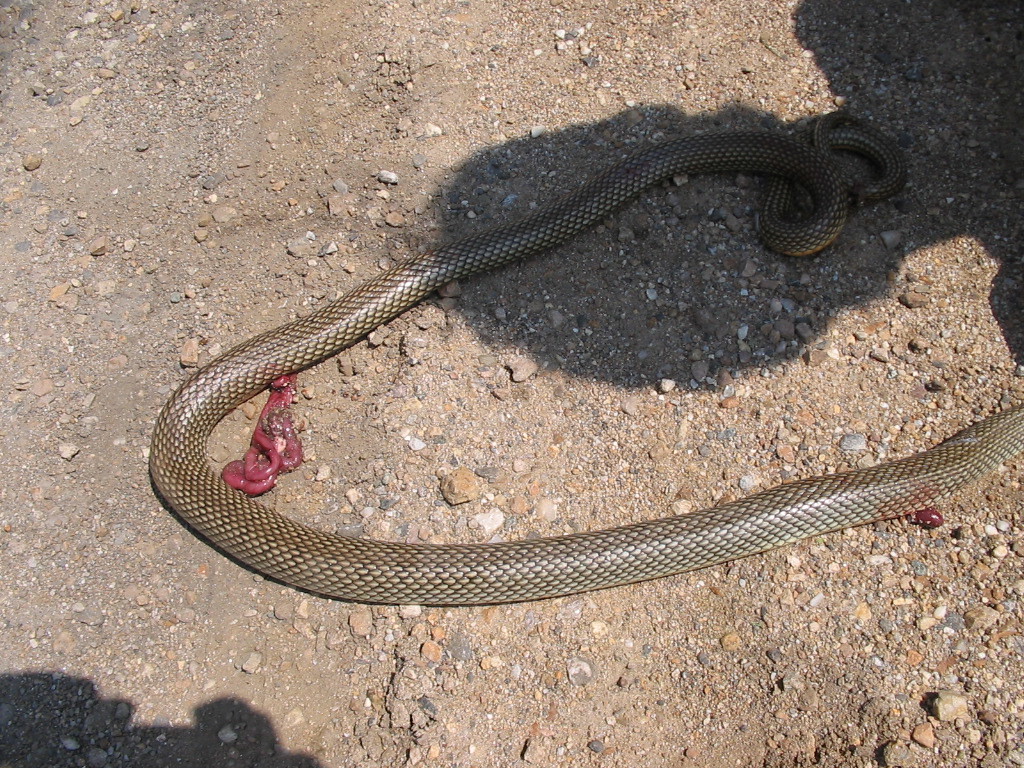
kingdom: Animalia
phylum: Chordata
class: Squamata
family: Colubridae
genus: Dolichophis
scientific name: Dolichophis caspius
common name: Large whip snake
